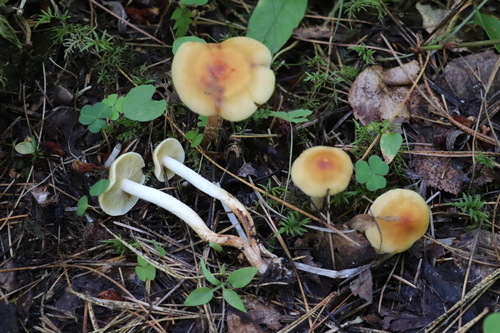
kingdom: Fungi
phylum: Basidiomycota
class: Agaricomycetes
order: Agaricales
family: Strophariaceae
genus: Hypholoma
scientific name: Hypholoma capnoides
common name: Conifer tuft
